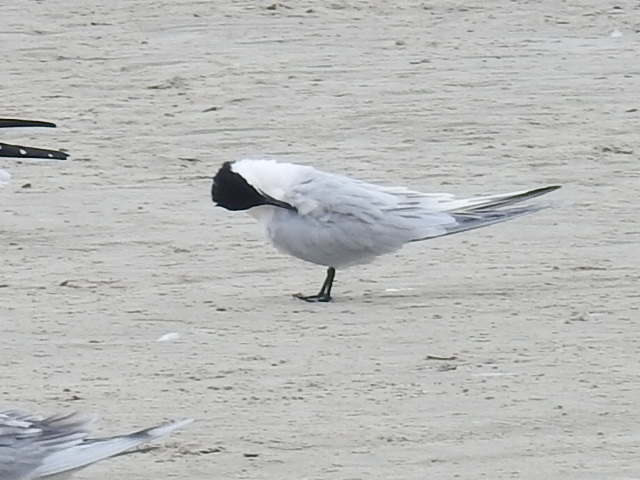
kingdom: Animalia
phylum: Chordata
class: Aves
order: Charadriiformes
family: Laridae
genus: Thalasseus
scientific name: Thalasseus sandvicensis
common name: Sandwich tern
